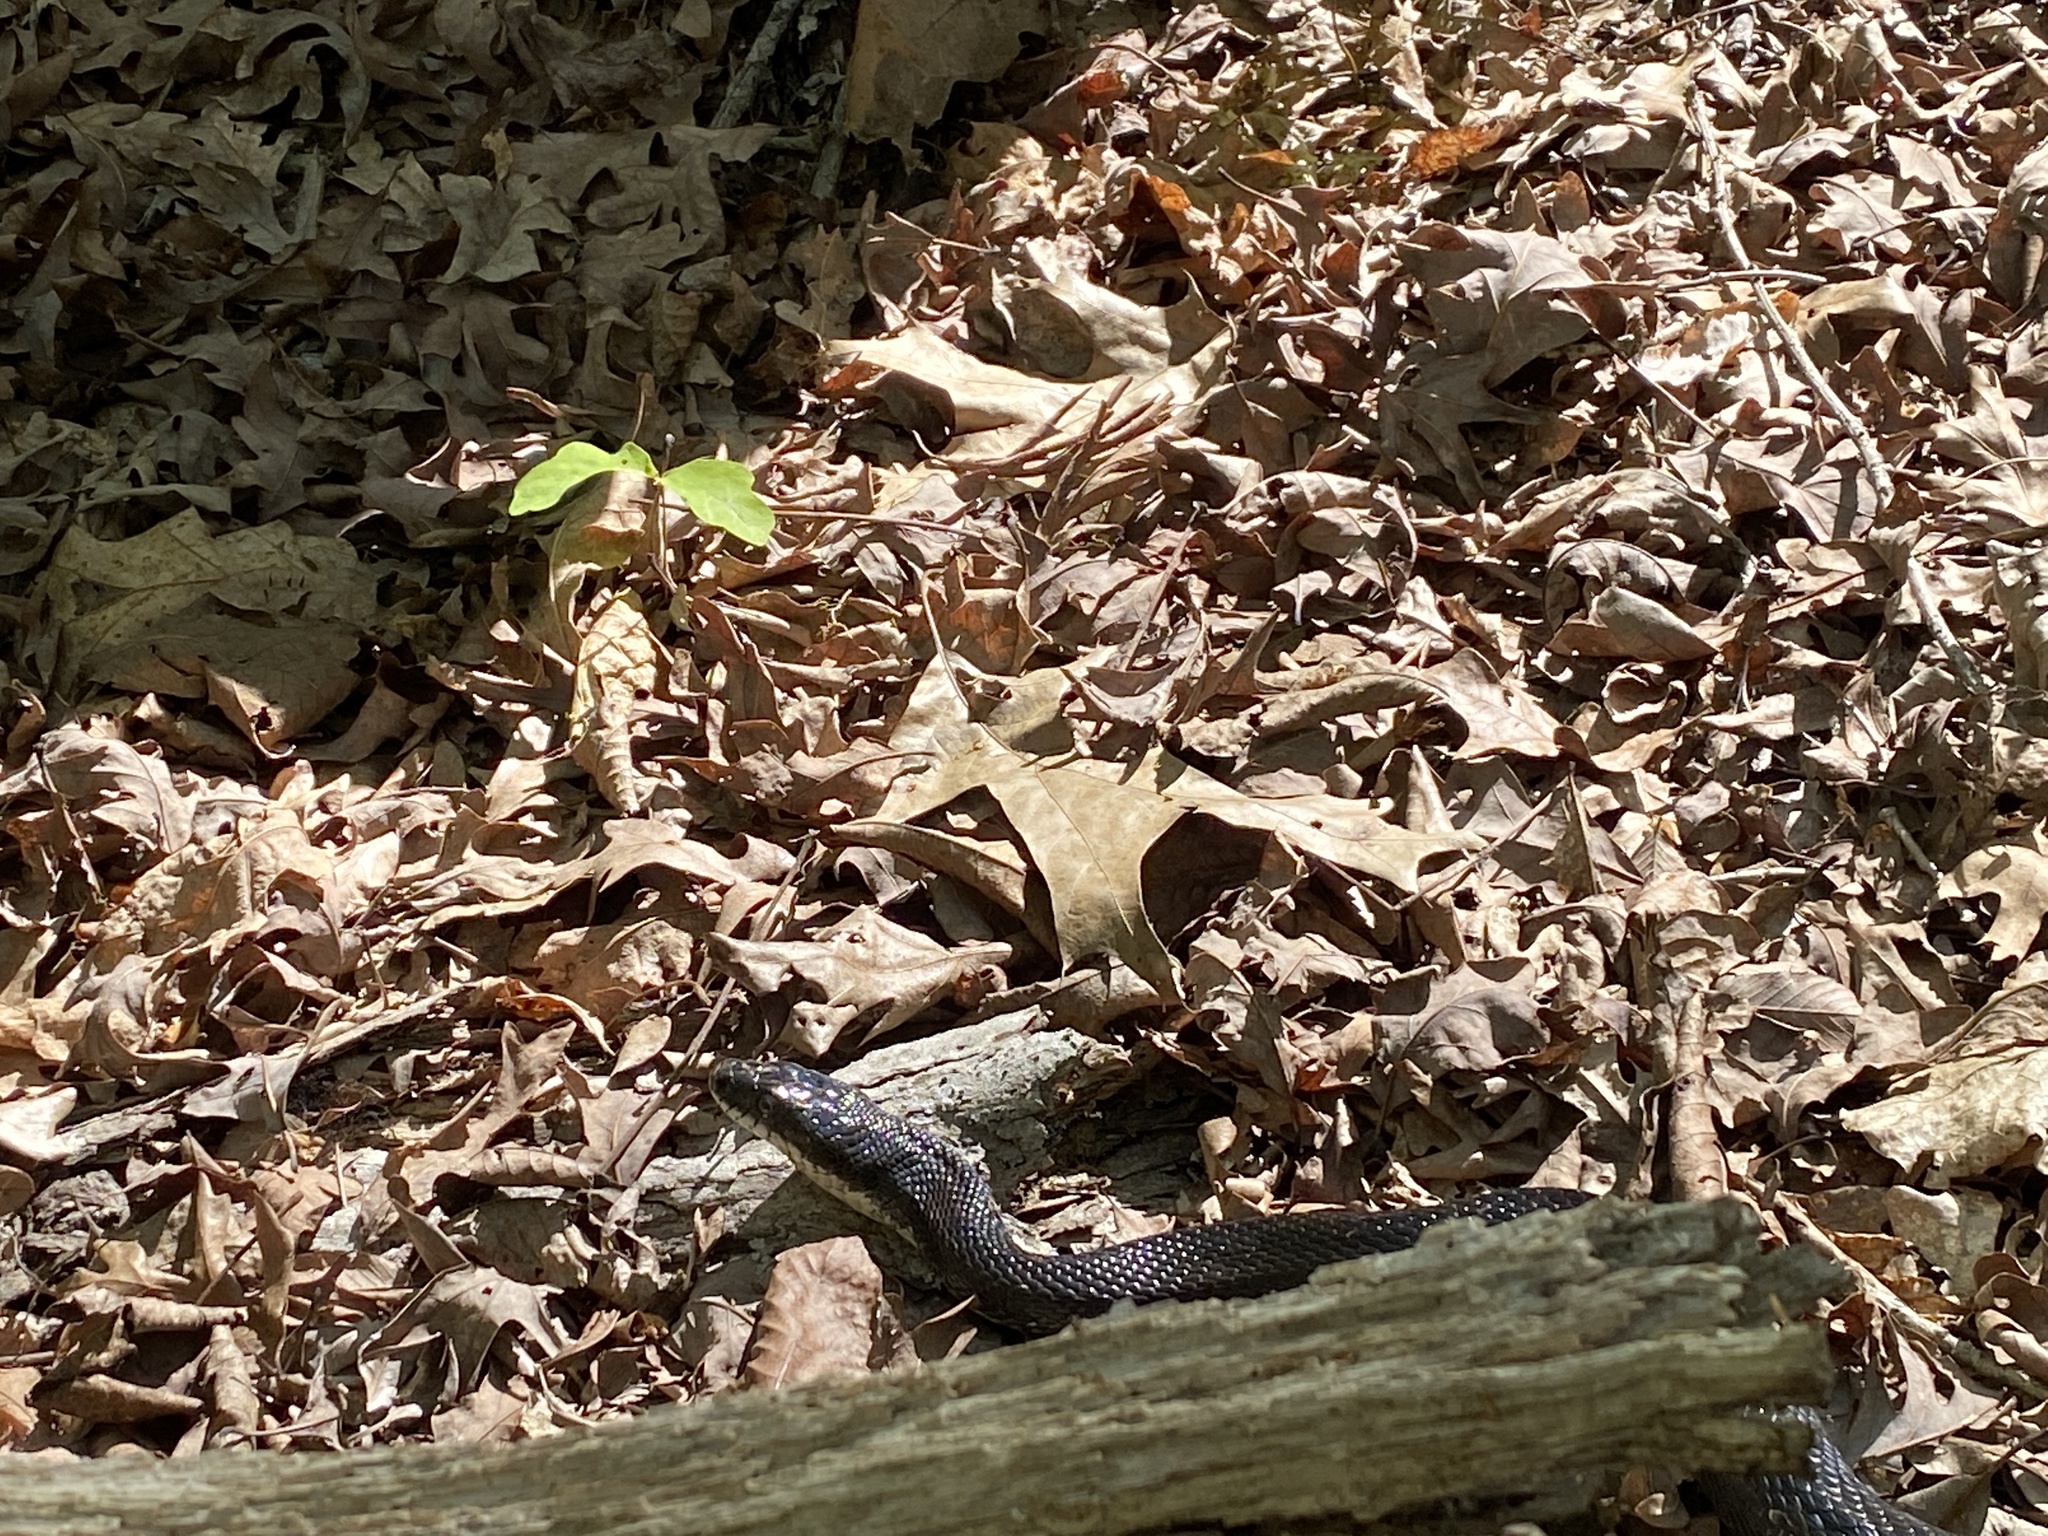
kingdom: Animalia
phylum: Chordata
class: Squamata
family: Colubridae
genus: Pantherophis
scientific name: Pantherophis alleghaniensis
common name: Eastern rat snake
